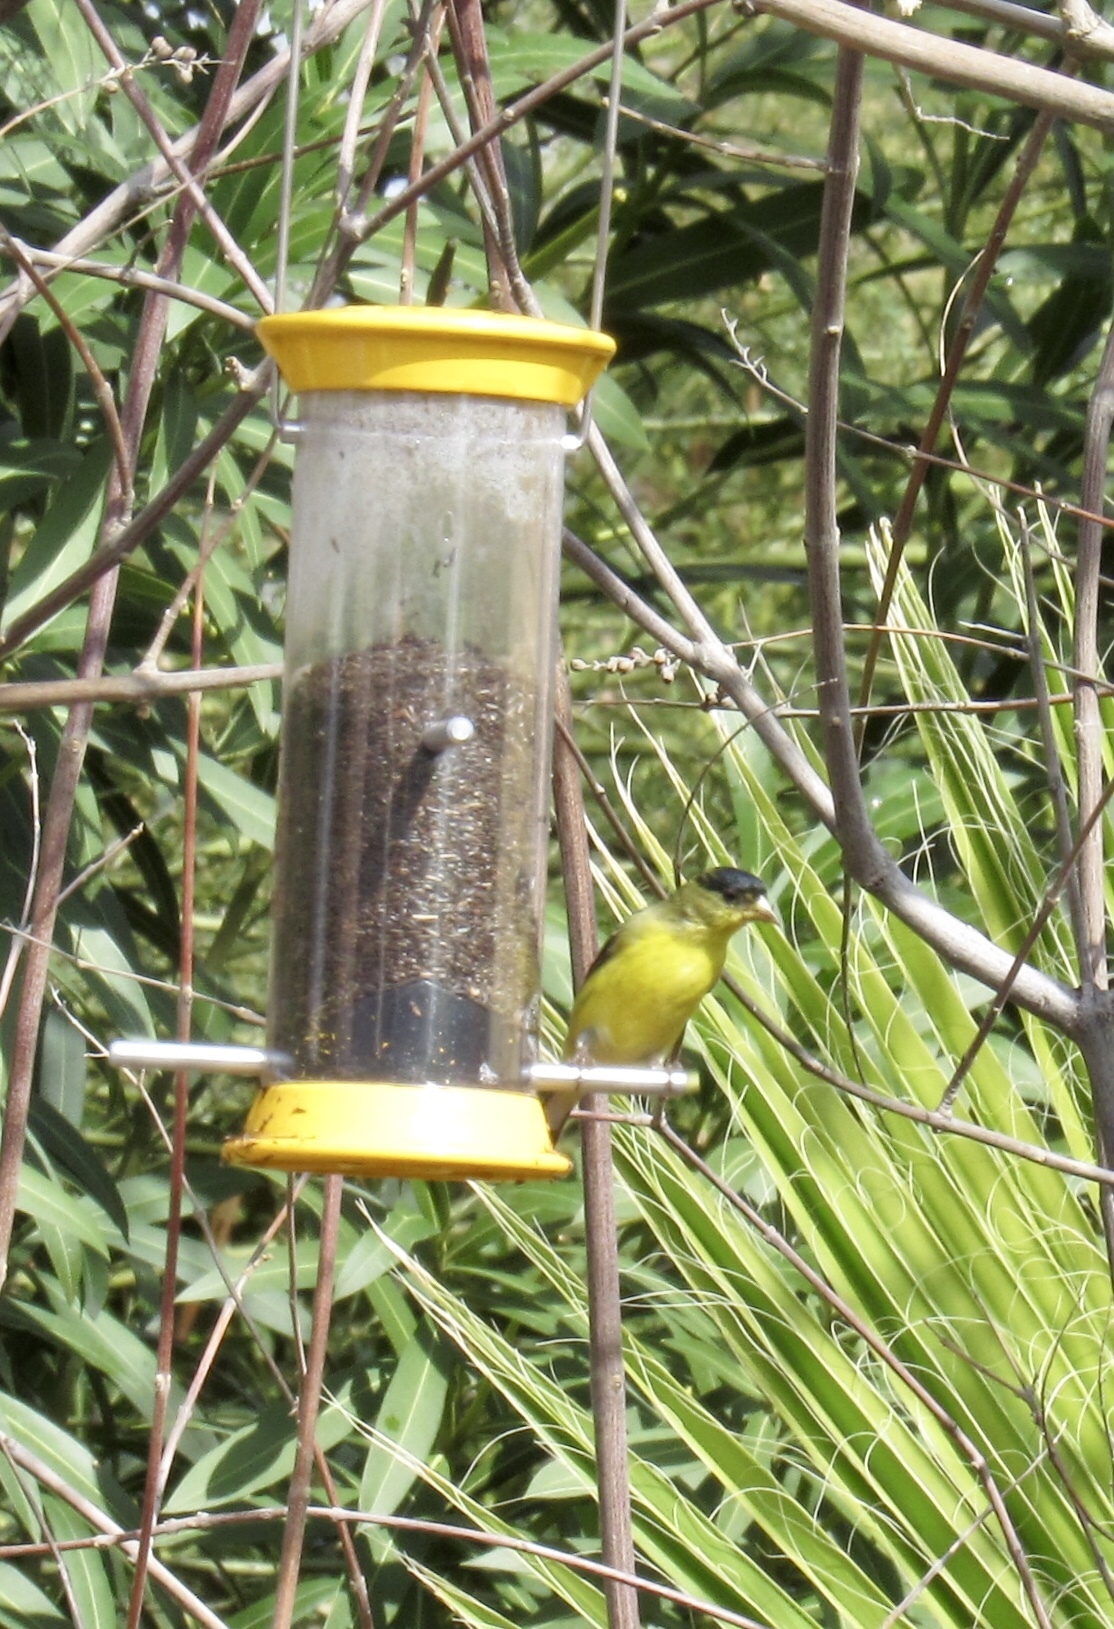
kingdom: Animalia
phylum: Chordata
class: Aves
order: Passeriformes
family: Fringillidae
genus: Spinus
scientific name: Spinus psaltria
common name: Lesser goldfinch
